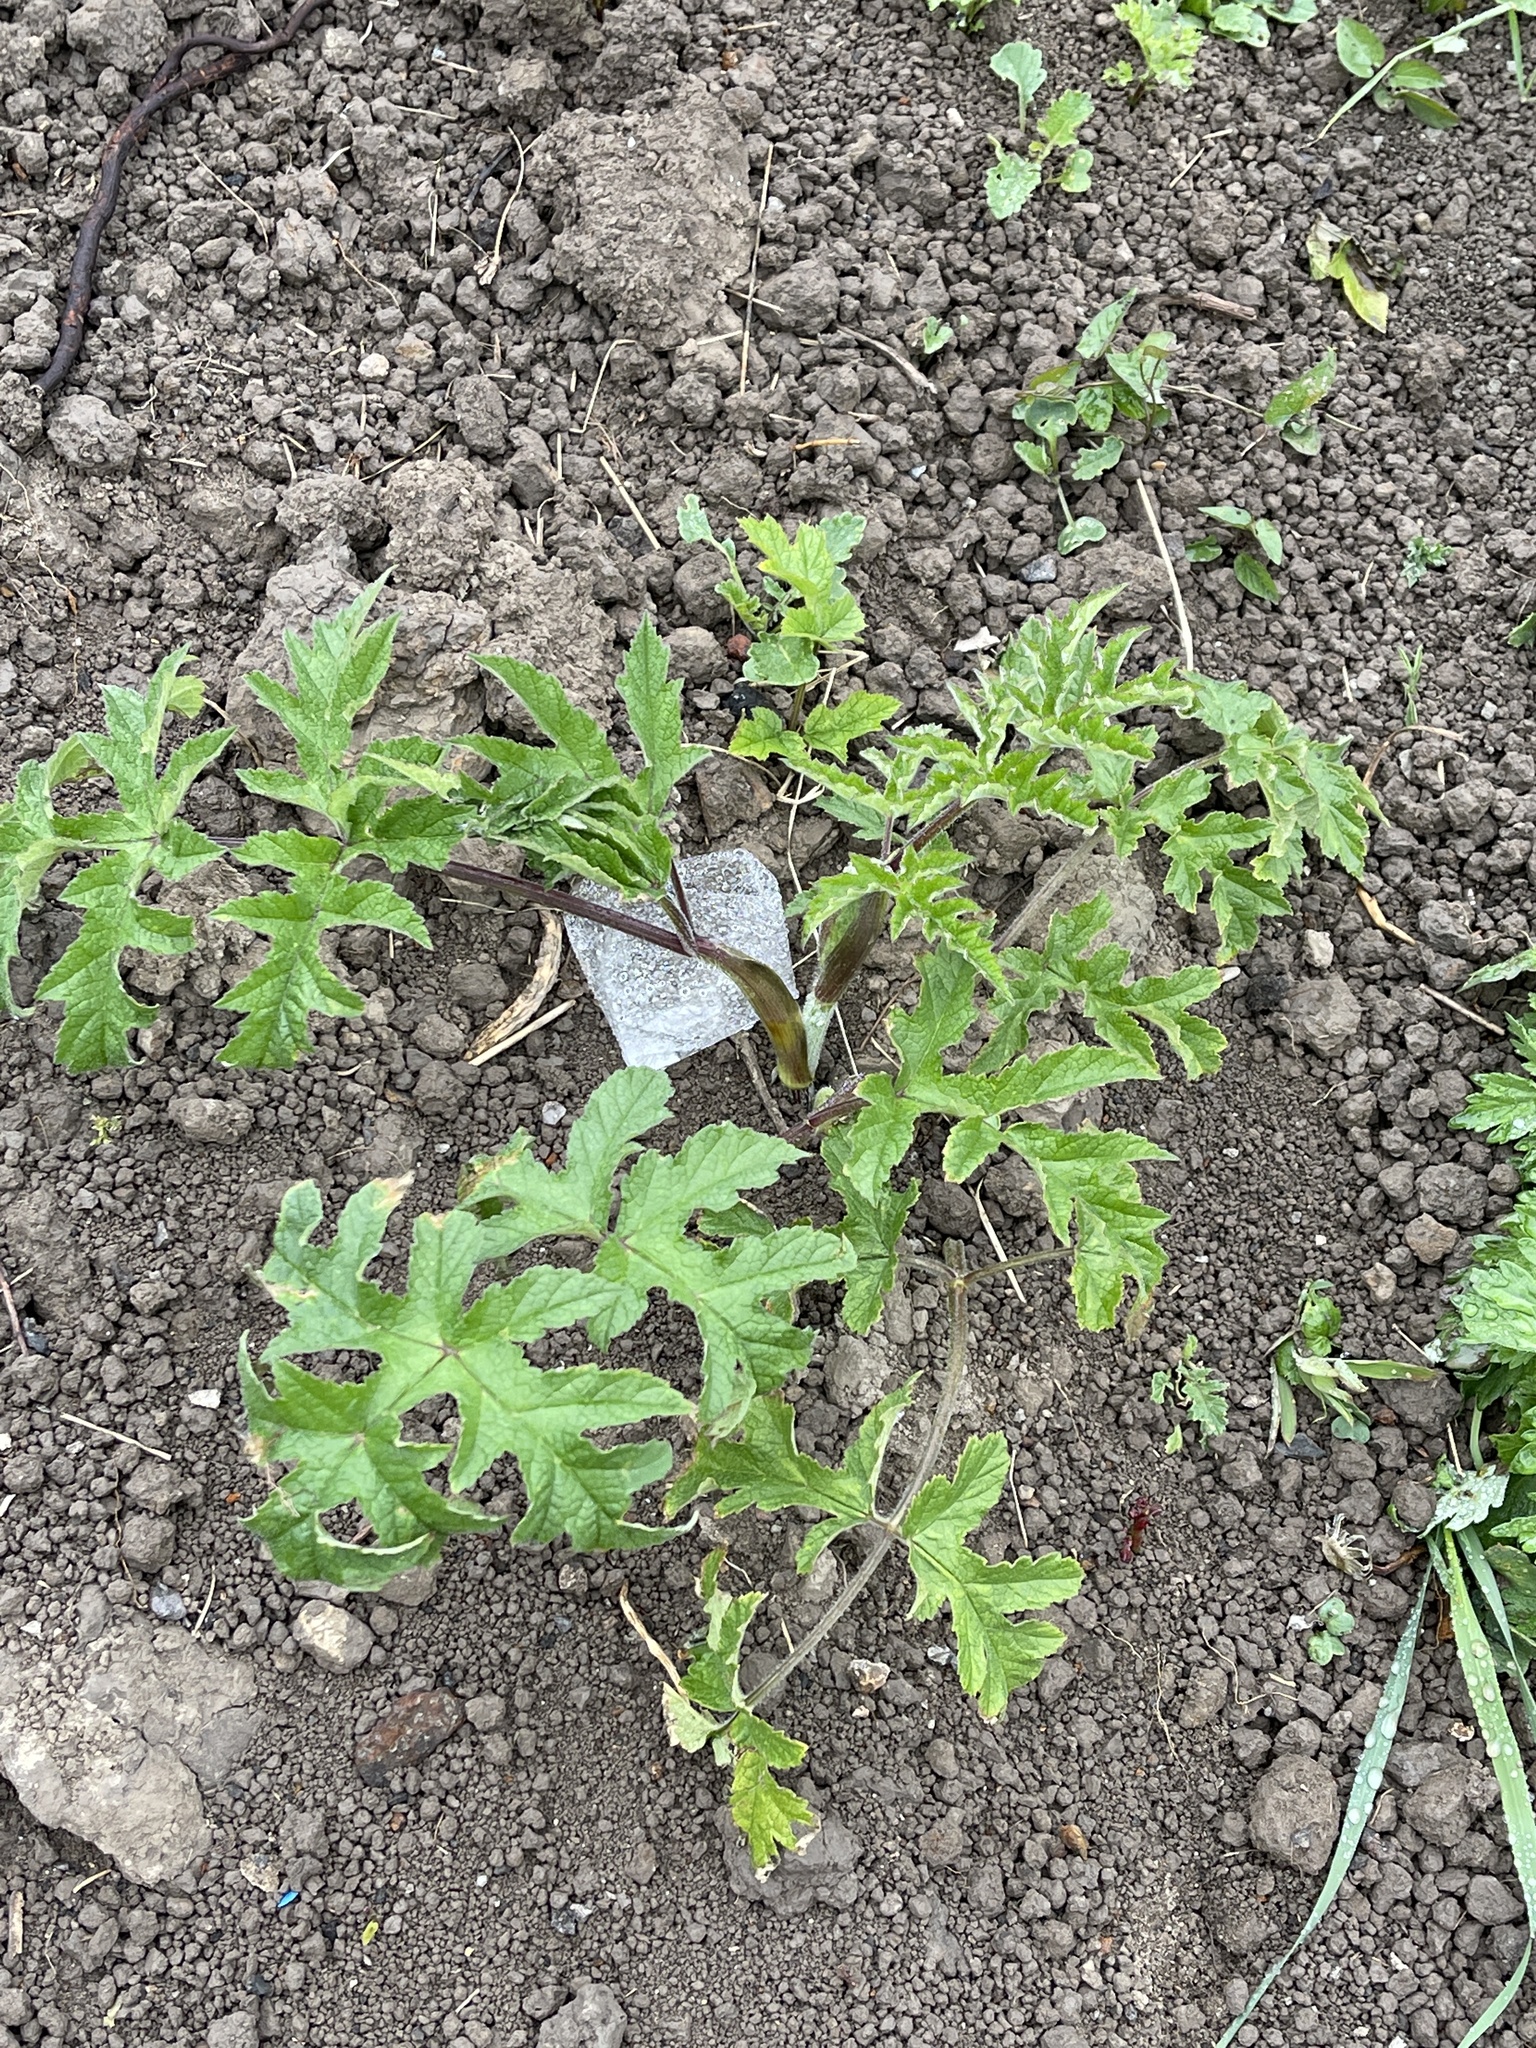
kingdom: Plantae
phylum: Tracheophyta
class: Magnoliopsida
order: Apiales
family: Apiaceae
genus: Heracleum
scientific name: Heracleum sphondylium
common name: Hogweed
